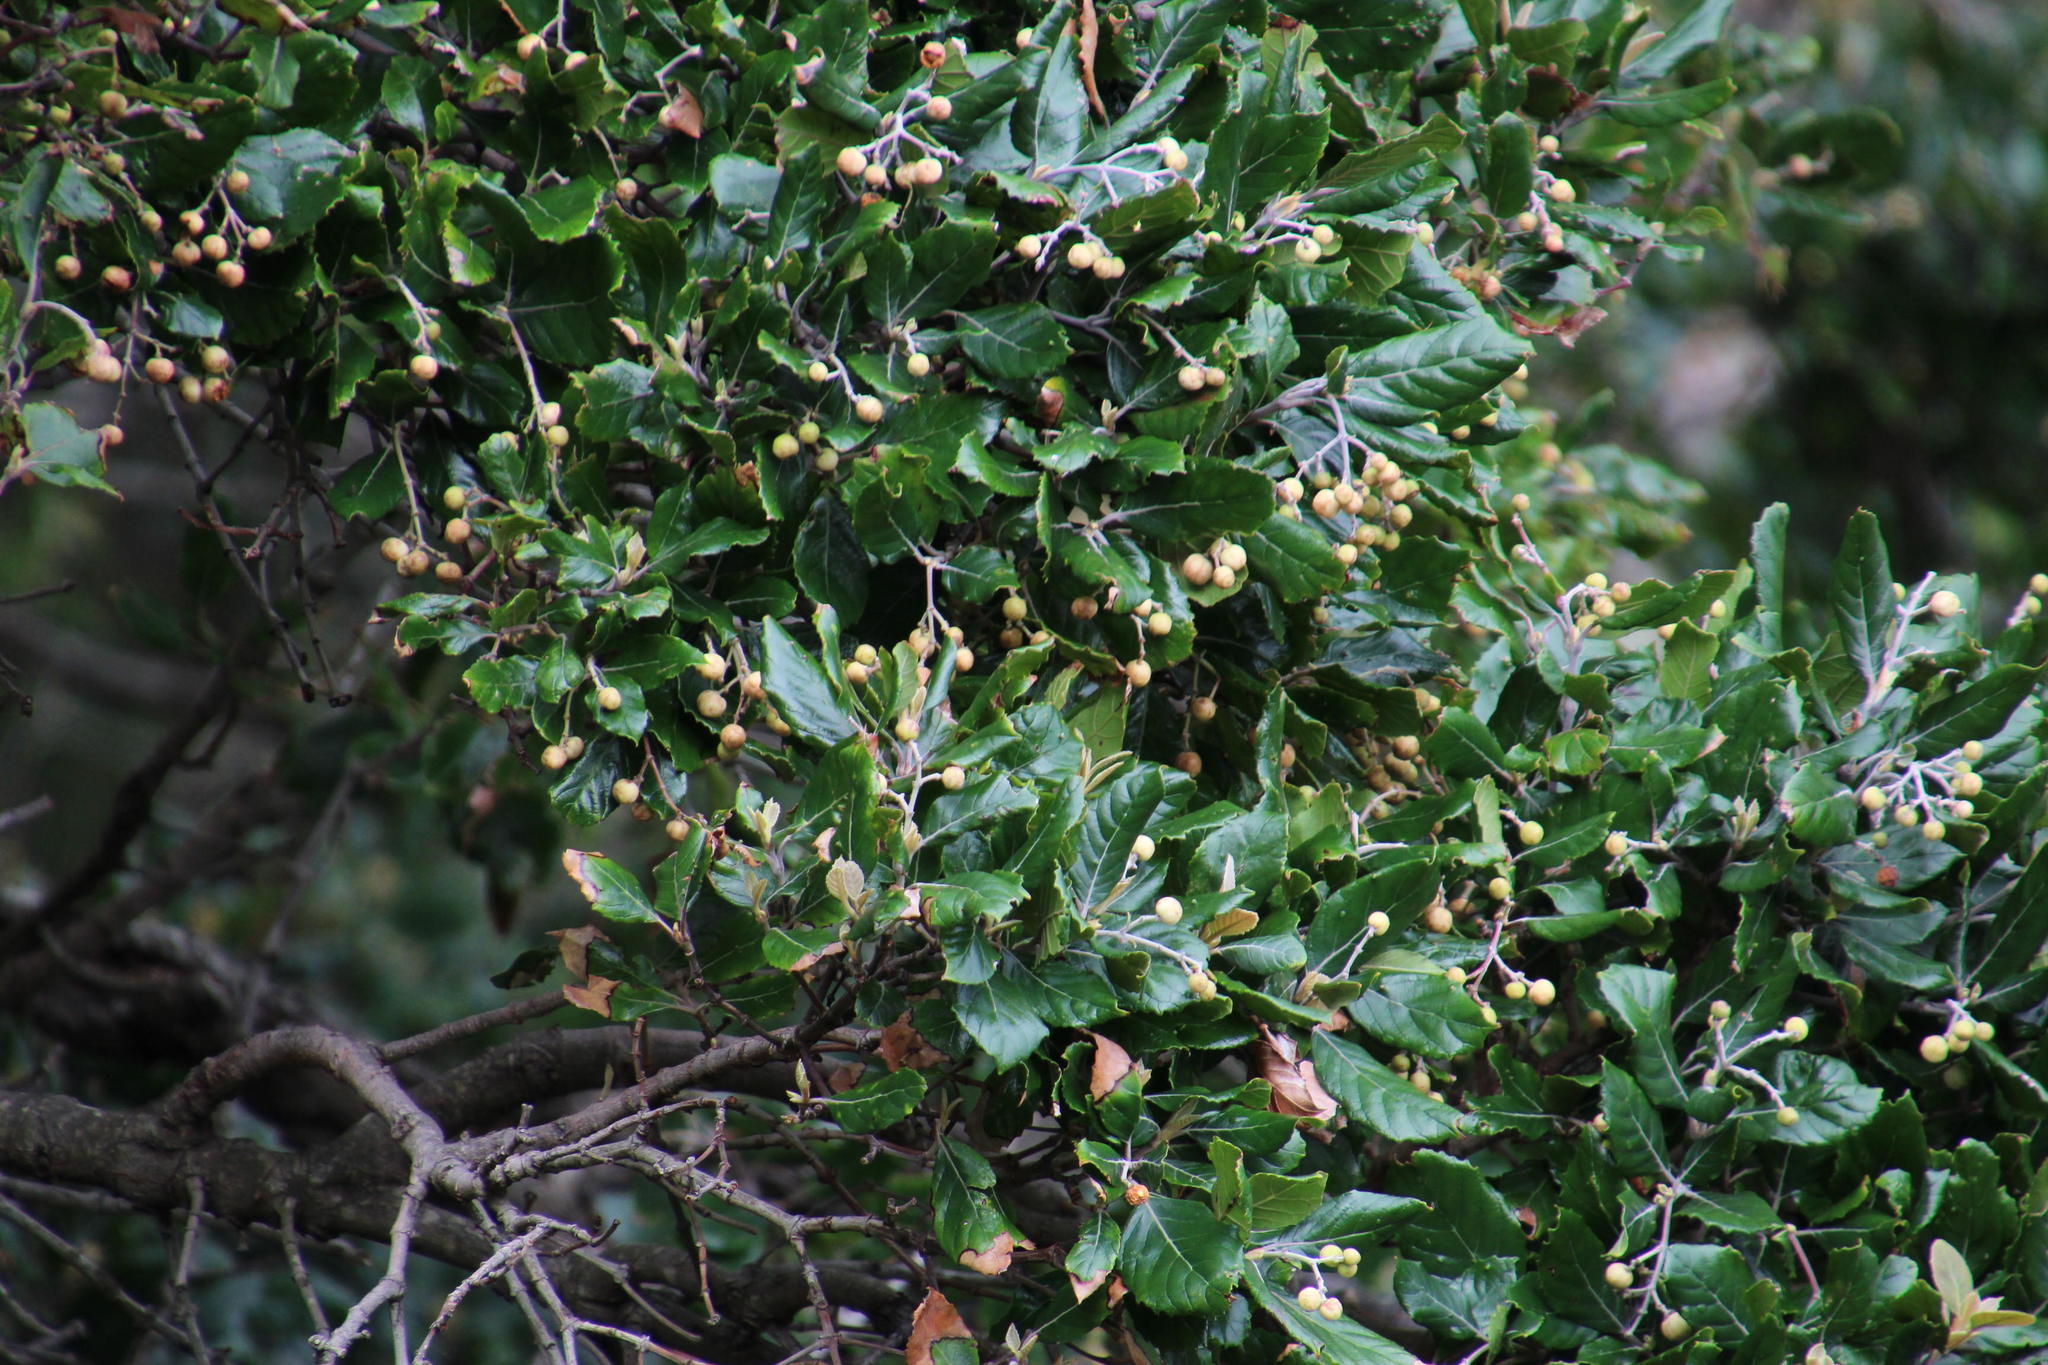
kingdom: Plantae
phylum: Tracheophyta
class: Magnoliopsida
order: Cornales
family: Curtisiaceae
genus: Curtisia
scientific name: Curtisia dentata
